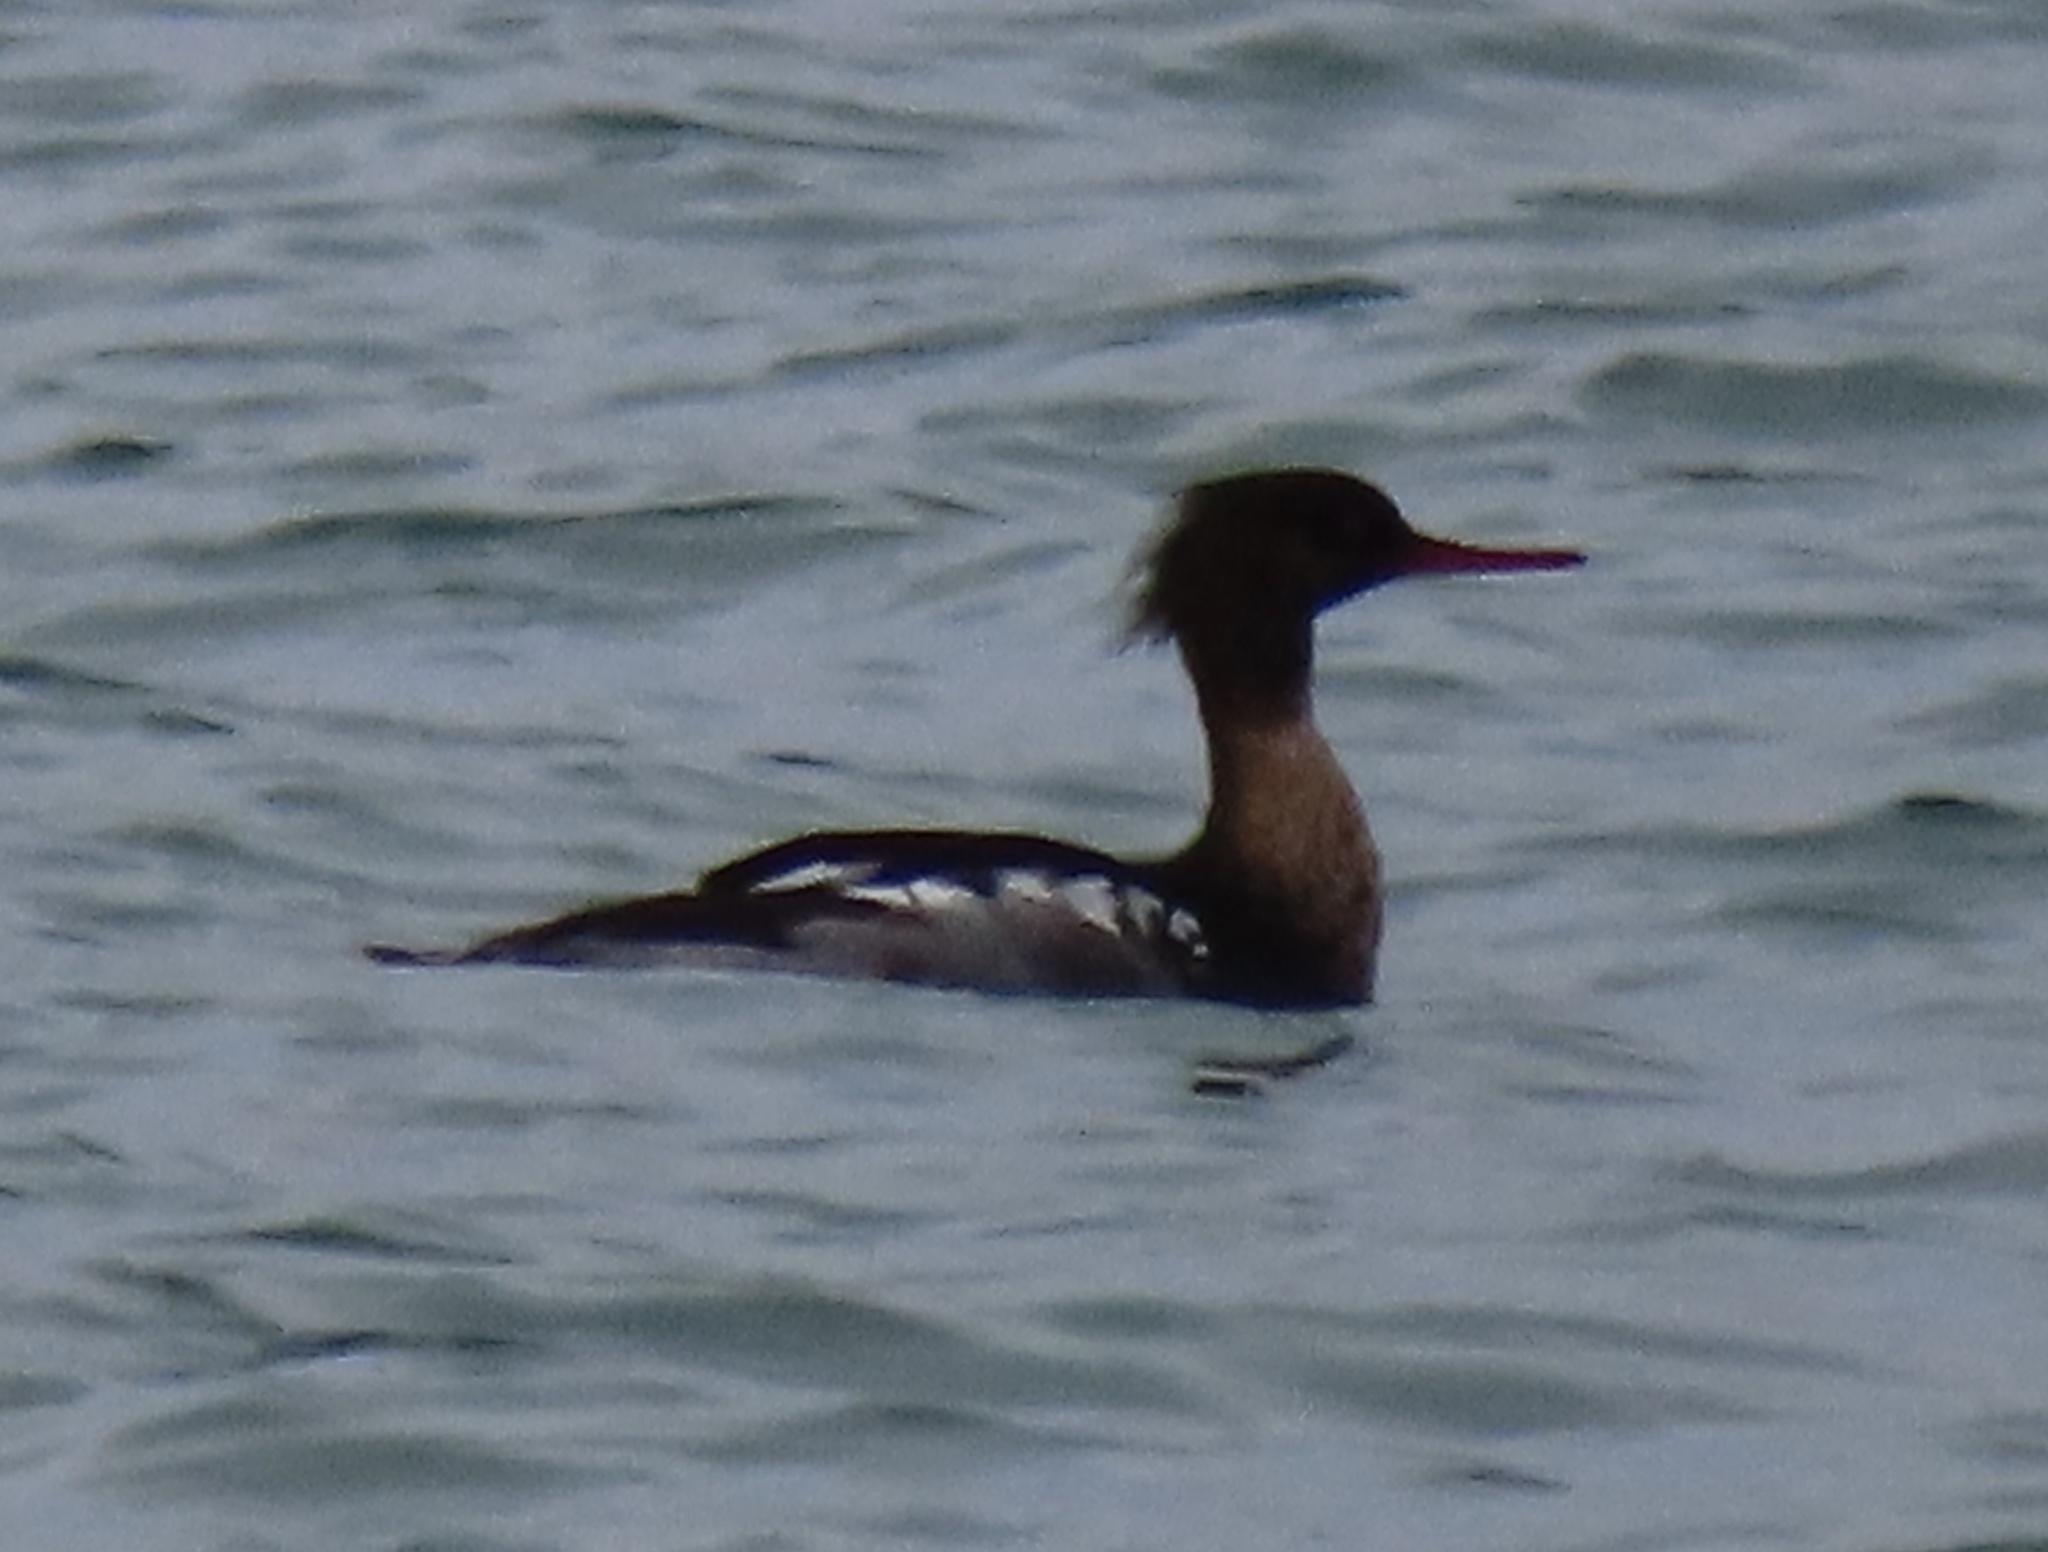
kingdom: Animalia
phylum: Chordata
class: Aves
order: Anseriformes
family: Anatidae
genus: Mergus
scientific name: Mergus serrator
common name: Red-breasted merganser
